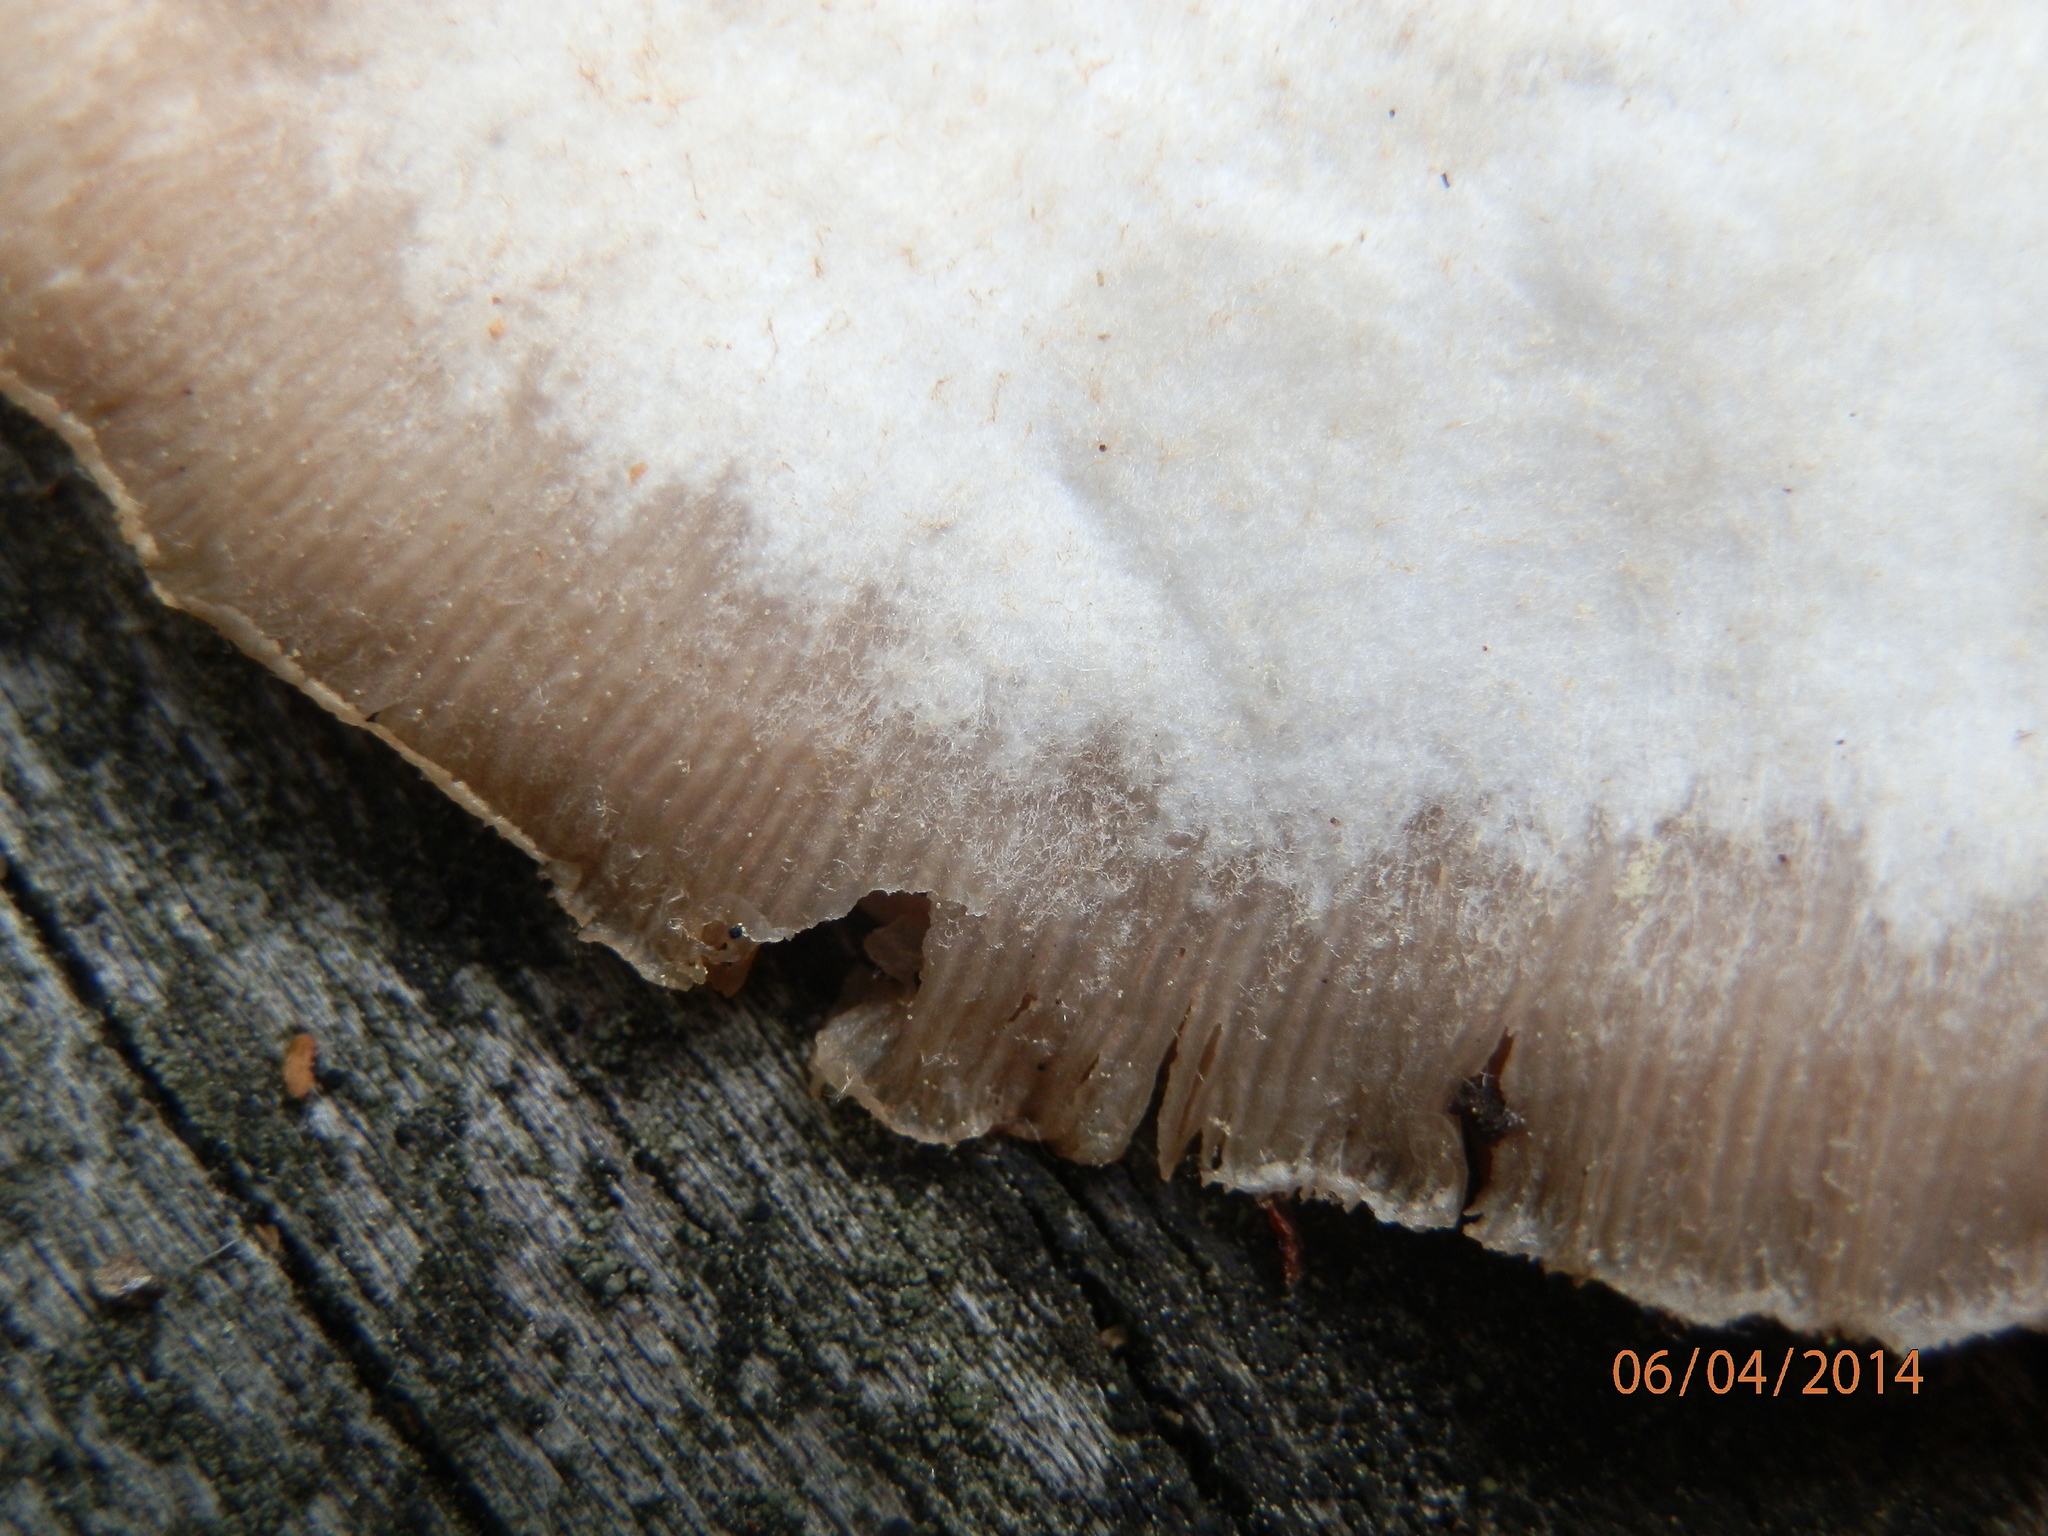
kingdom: Fungi
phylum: Basidiomycota
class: Agaricomycetes
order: Agaricales
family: Crepidotaceae
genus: Crepidotus
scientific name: Crepidotus applanatus
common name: Flat crep
